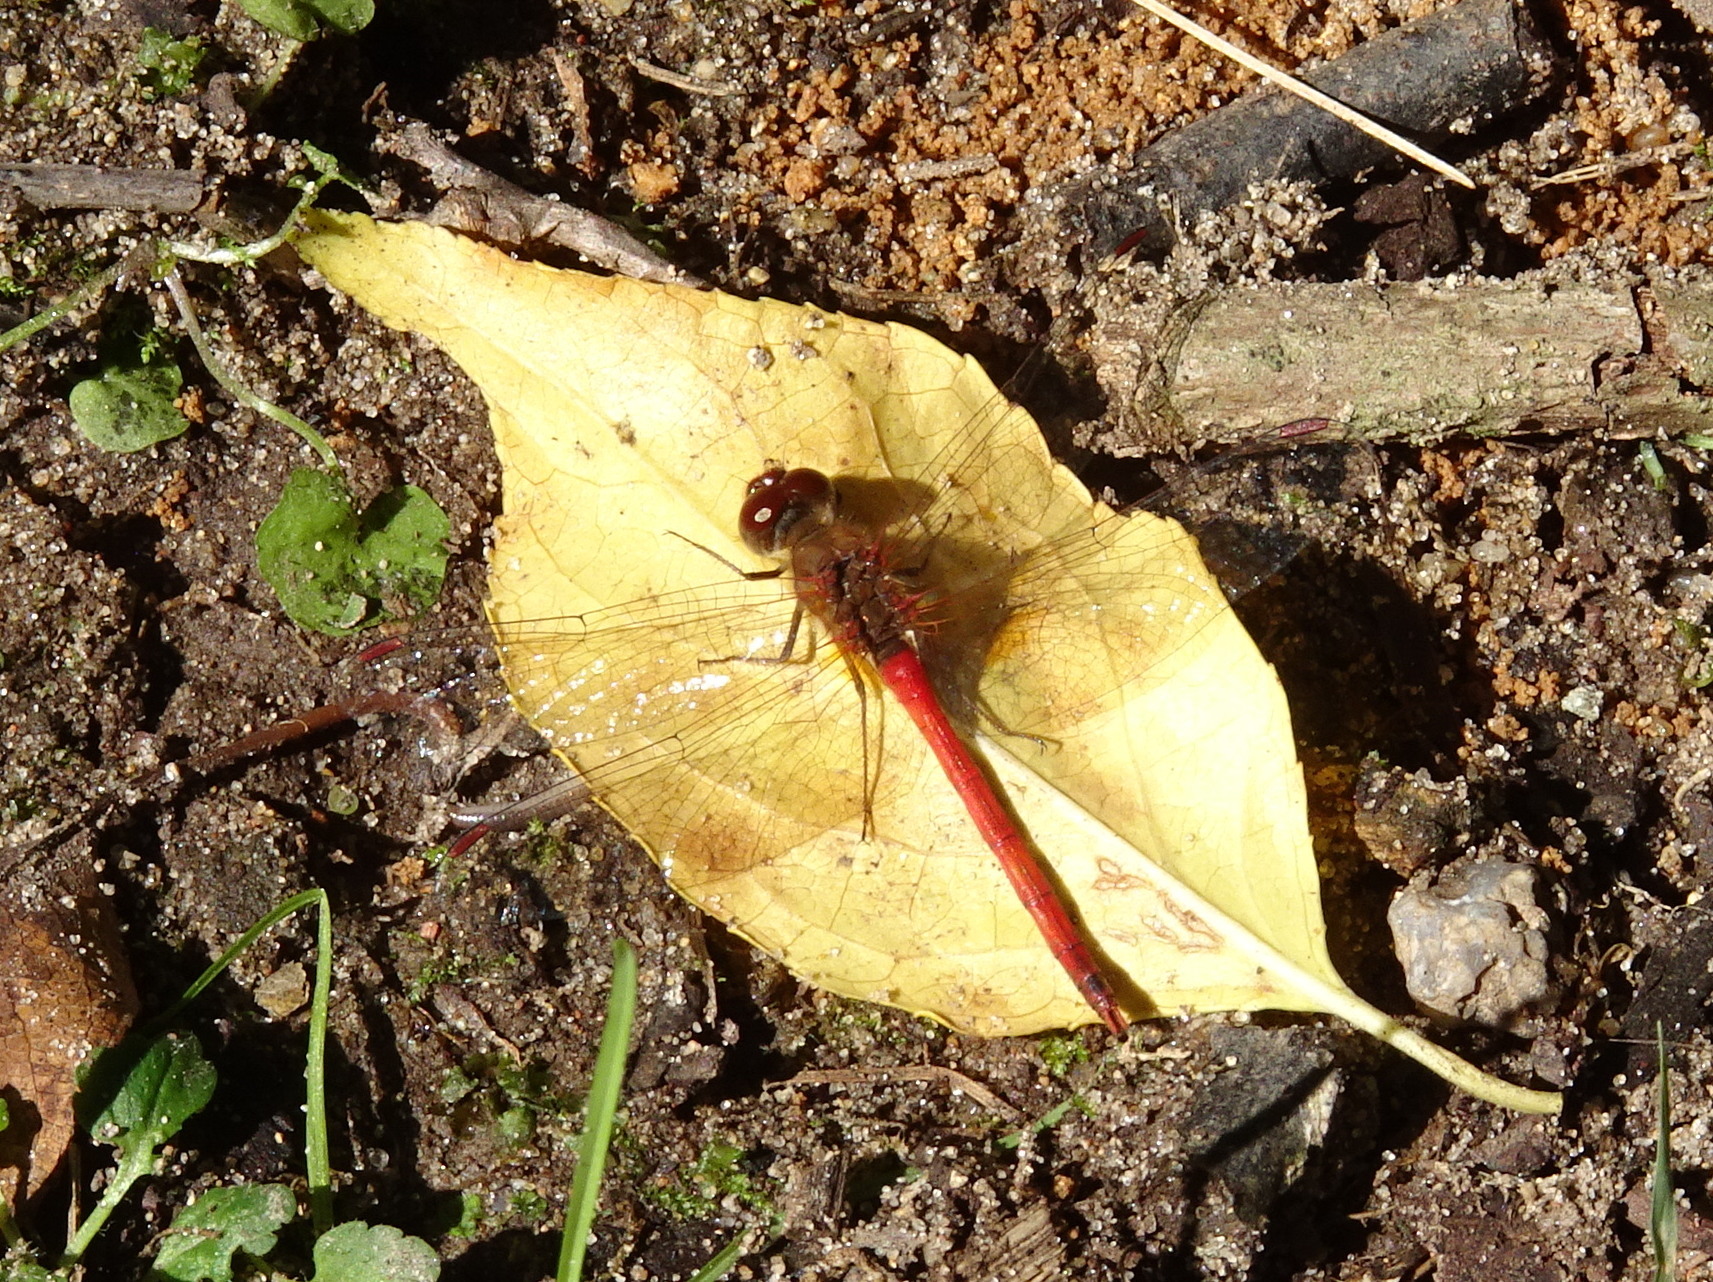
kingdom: Animalia
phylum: Arthropoda
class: Insecta
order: Odonata
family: Libellulidae
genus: Sympetrum
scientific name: Sympetrum vicinum
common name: Autumn meadowhawk
